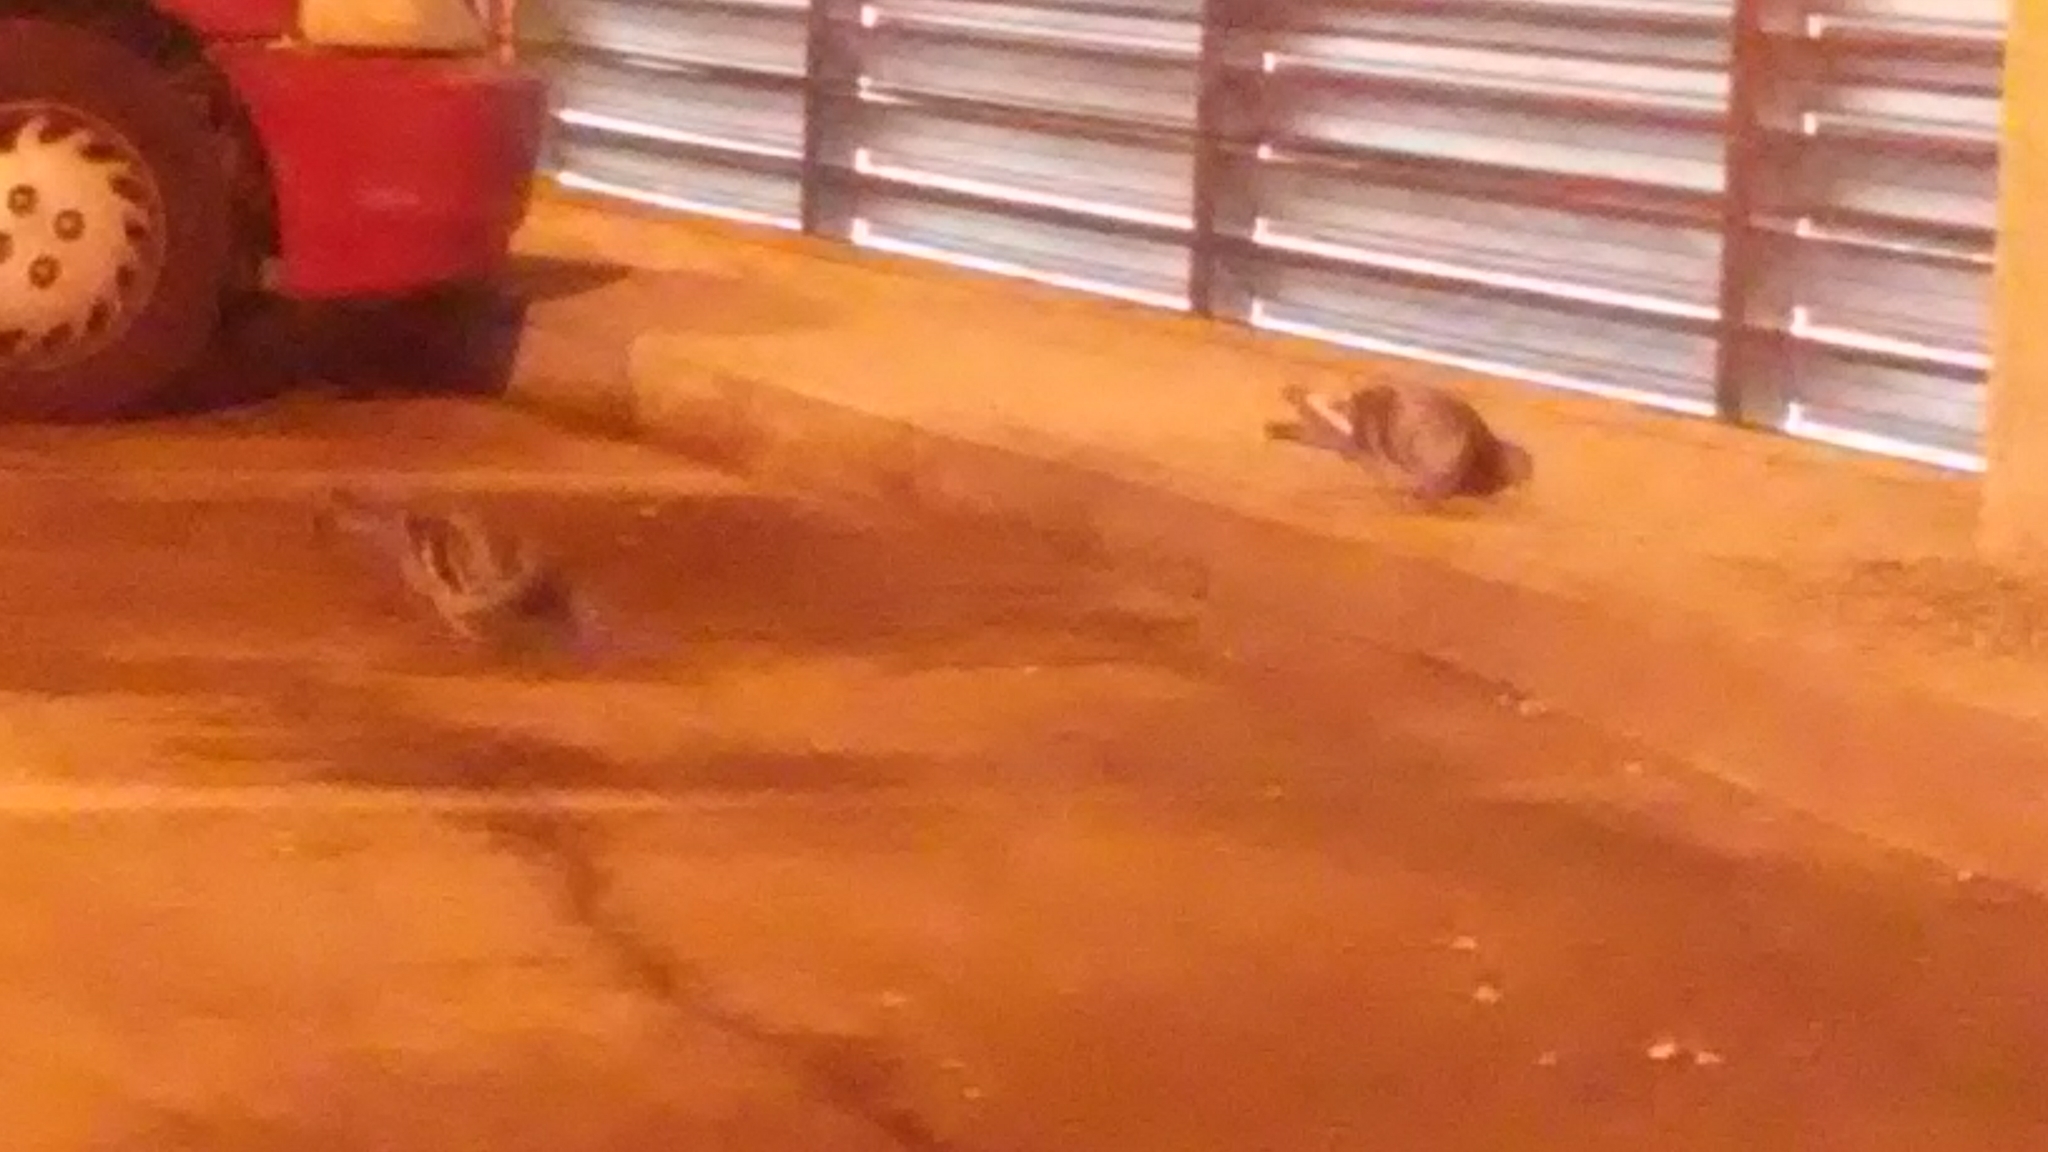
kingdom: Animalia
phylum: Chordata
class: Aves
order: Columbiformes
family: Columbidae
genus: Columba
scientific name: Columba livia
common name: Rock pigeon
